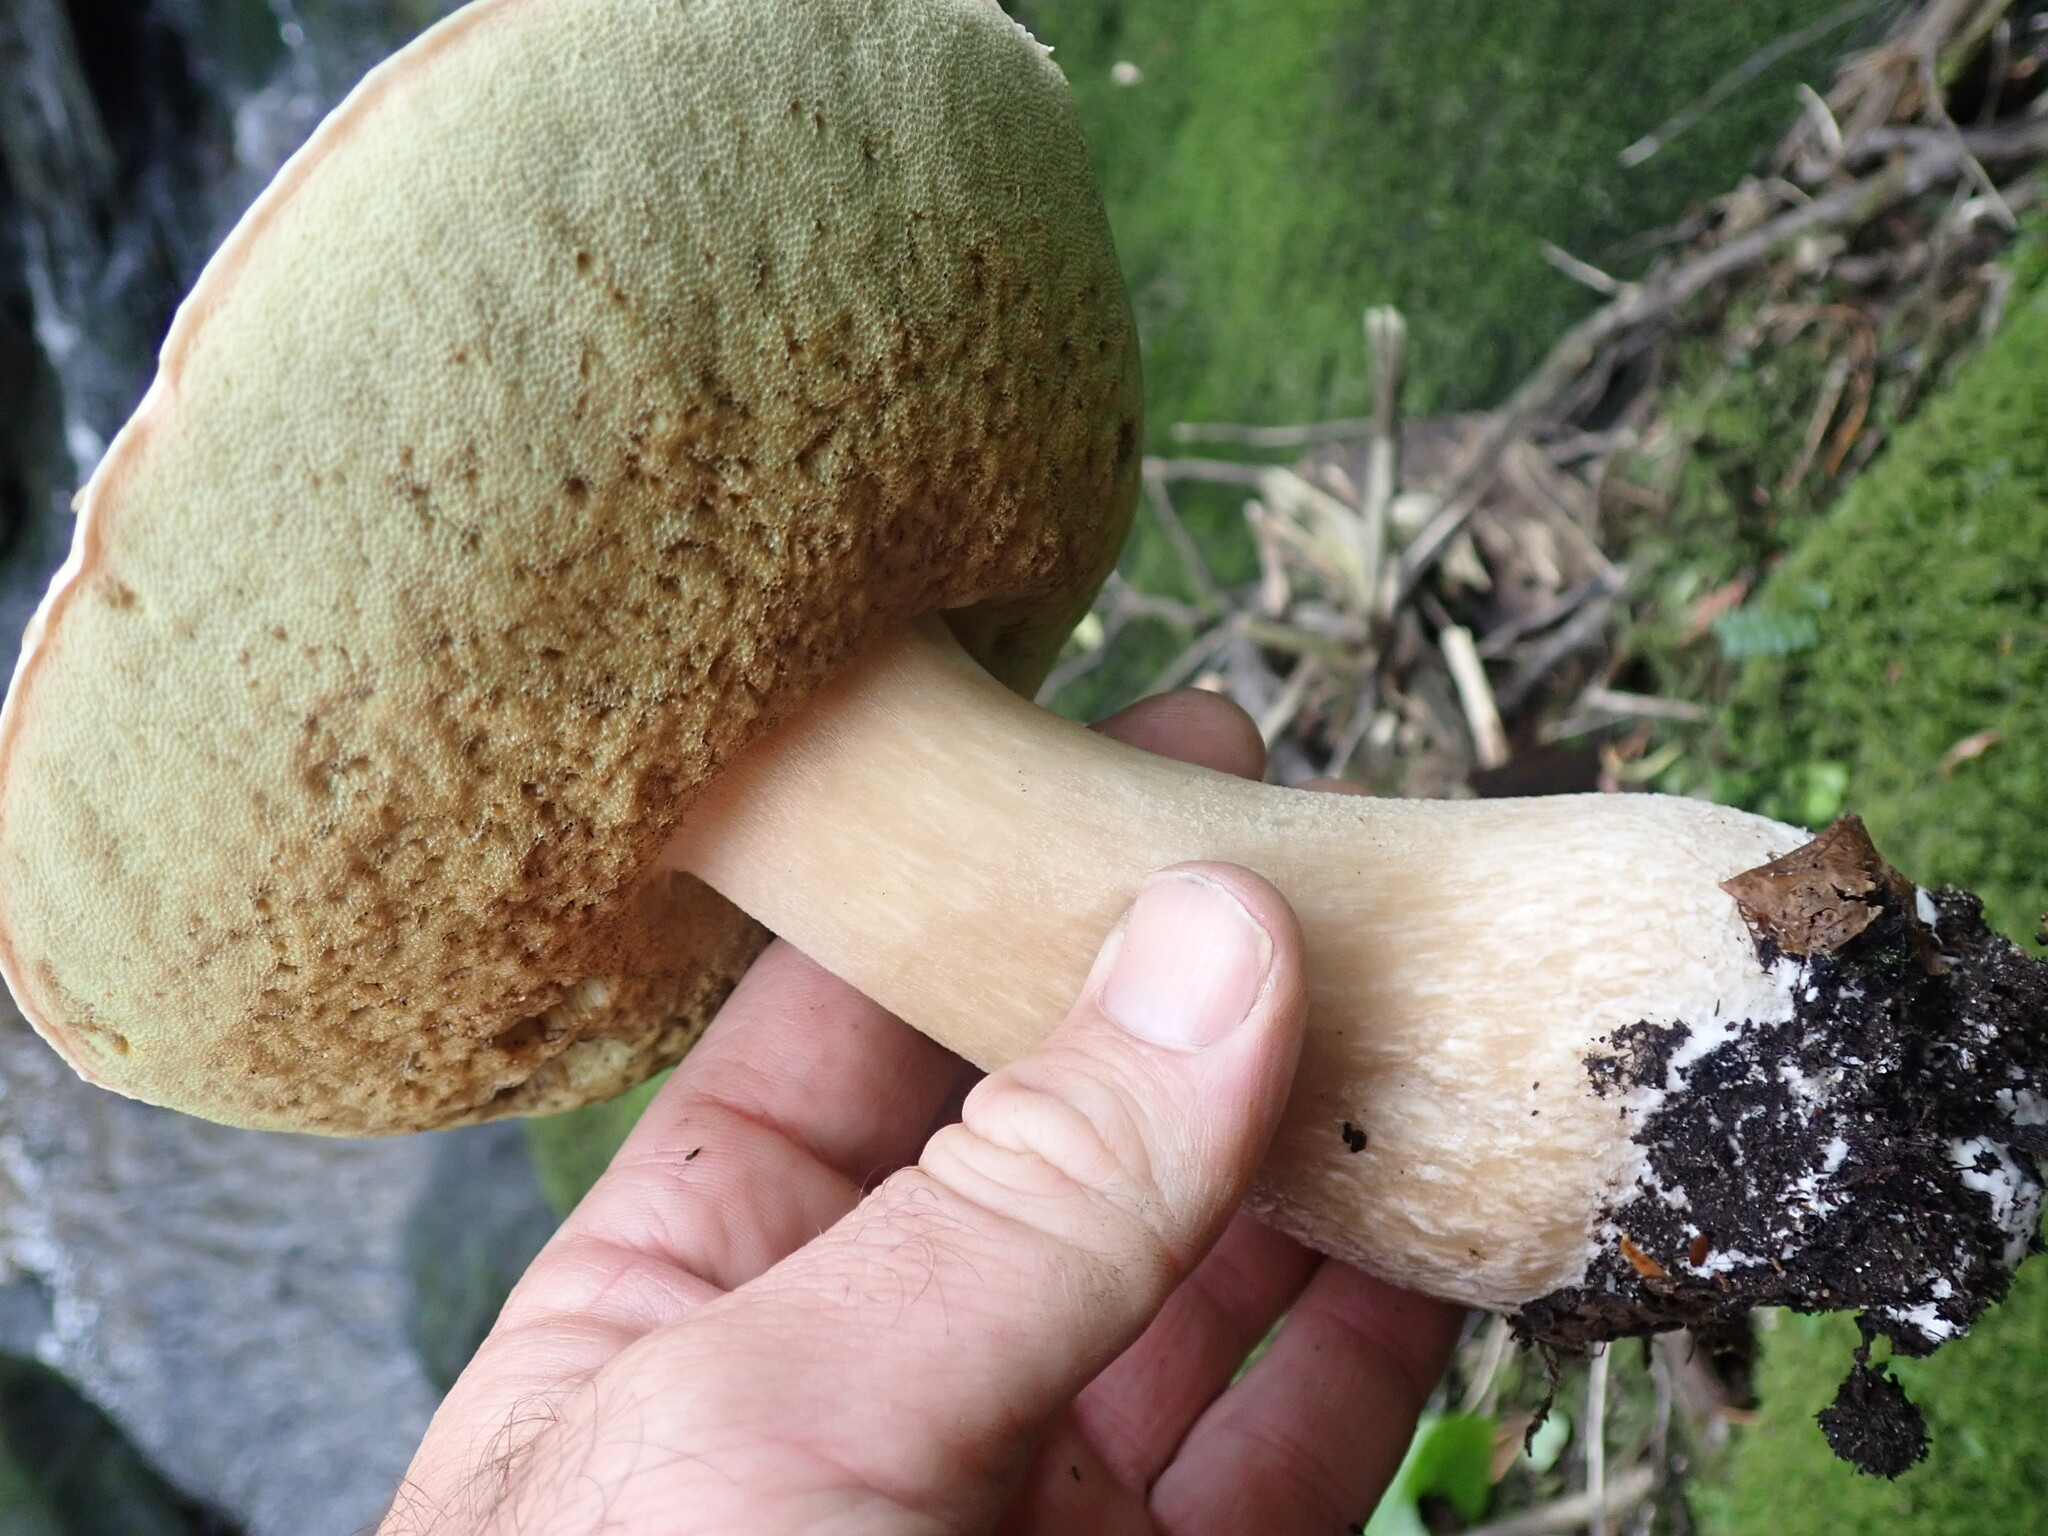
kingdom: Fungi
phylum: Basidiomycota
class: Agaricomycetes
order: Boletales
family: Boletaceae
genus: Boletus
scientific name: Boletus edulis
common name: Cep
